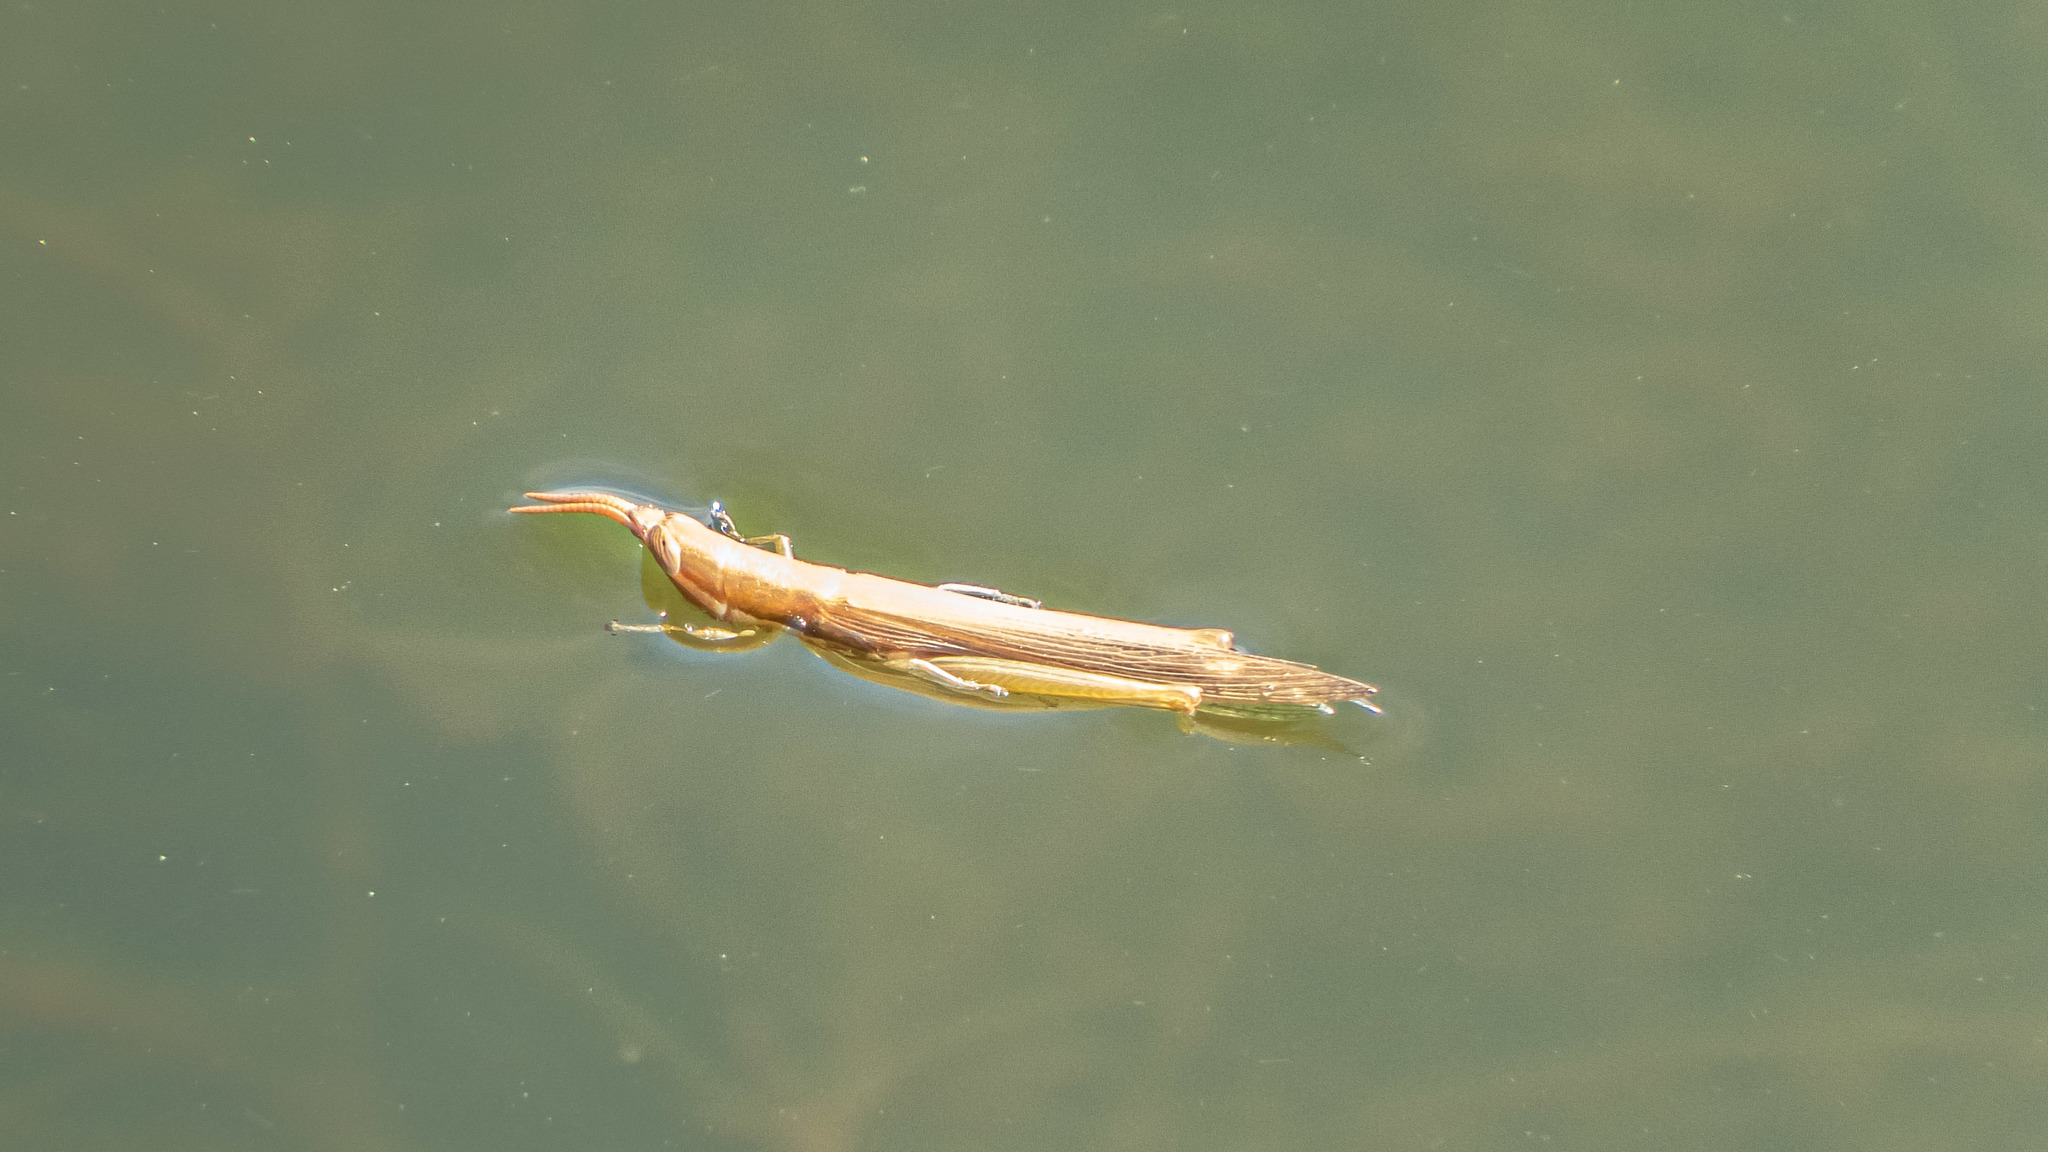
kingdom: Animalia
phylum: Arthropoda
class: Insecta
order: Orthoptera
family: Acrididae
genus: Leptysma
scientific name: Leptysma marginicollis
